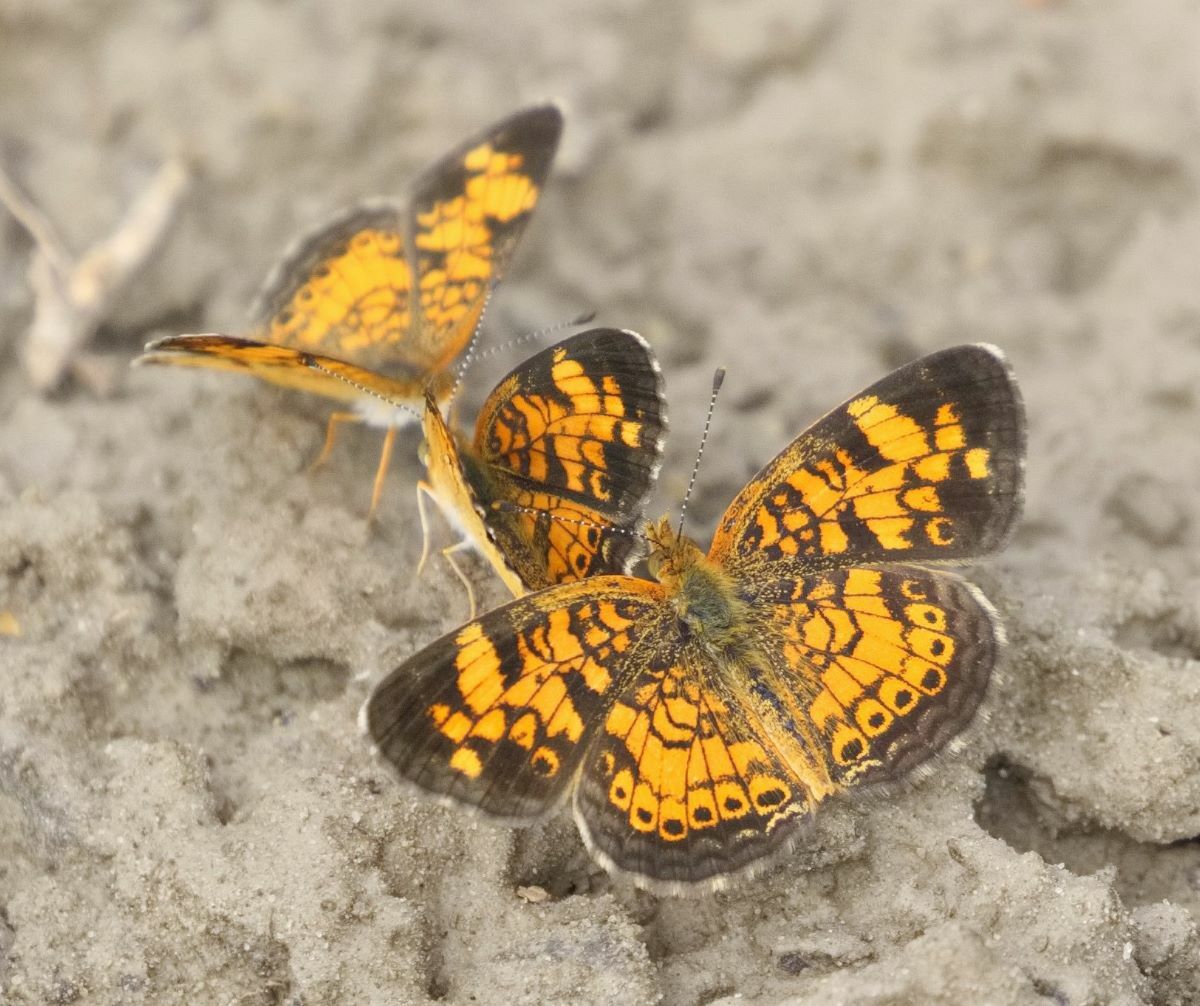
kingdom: Animalia
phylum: Arthropoda
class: Insecta
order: Lepidoptera
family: Nymphalidae
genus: Phyciodes
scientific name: Phyciodes tharos
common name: Pearl crescent
